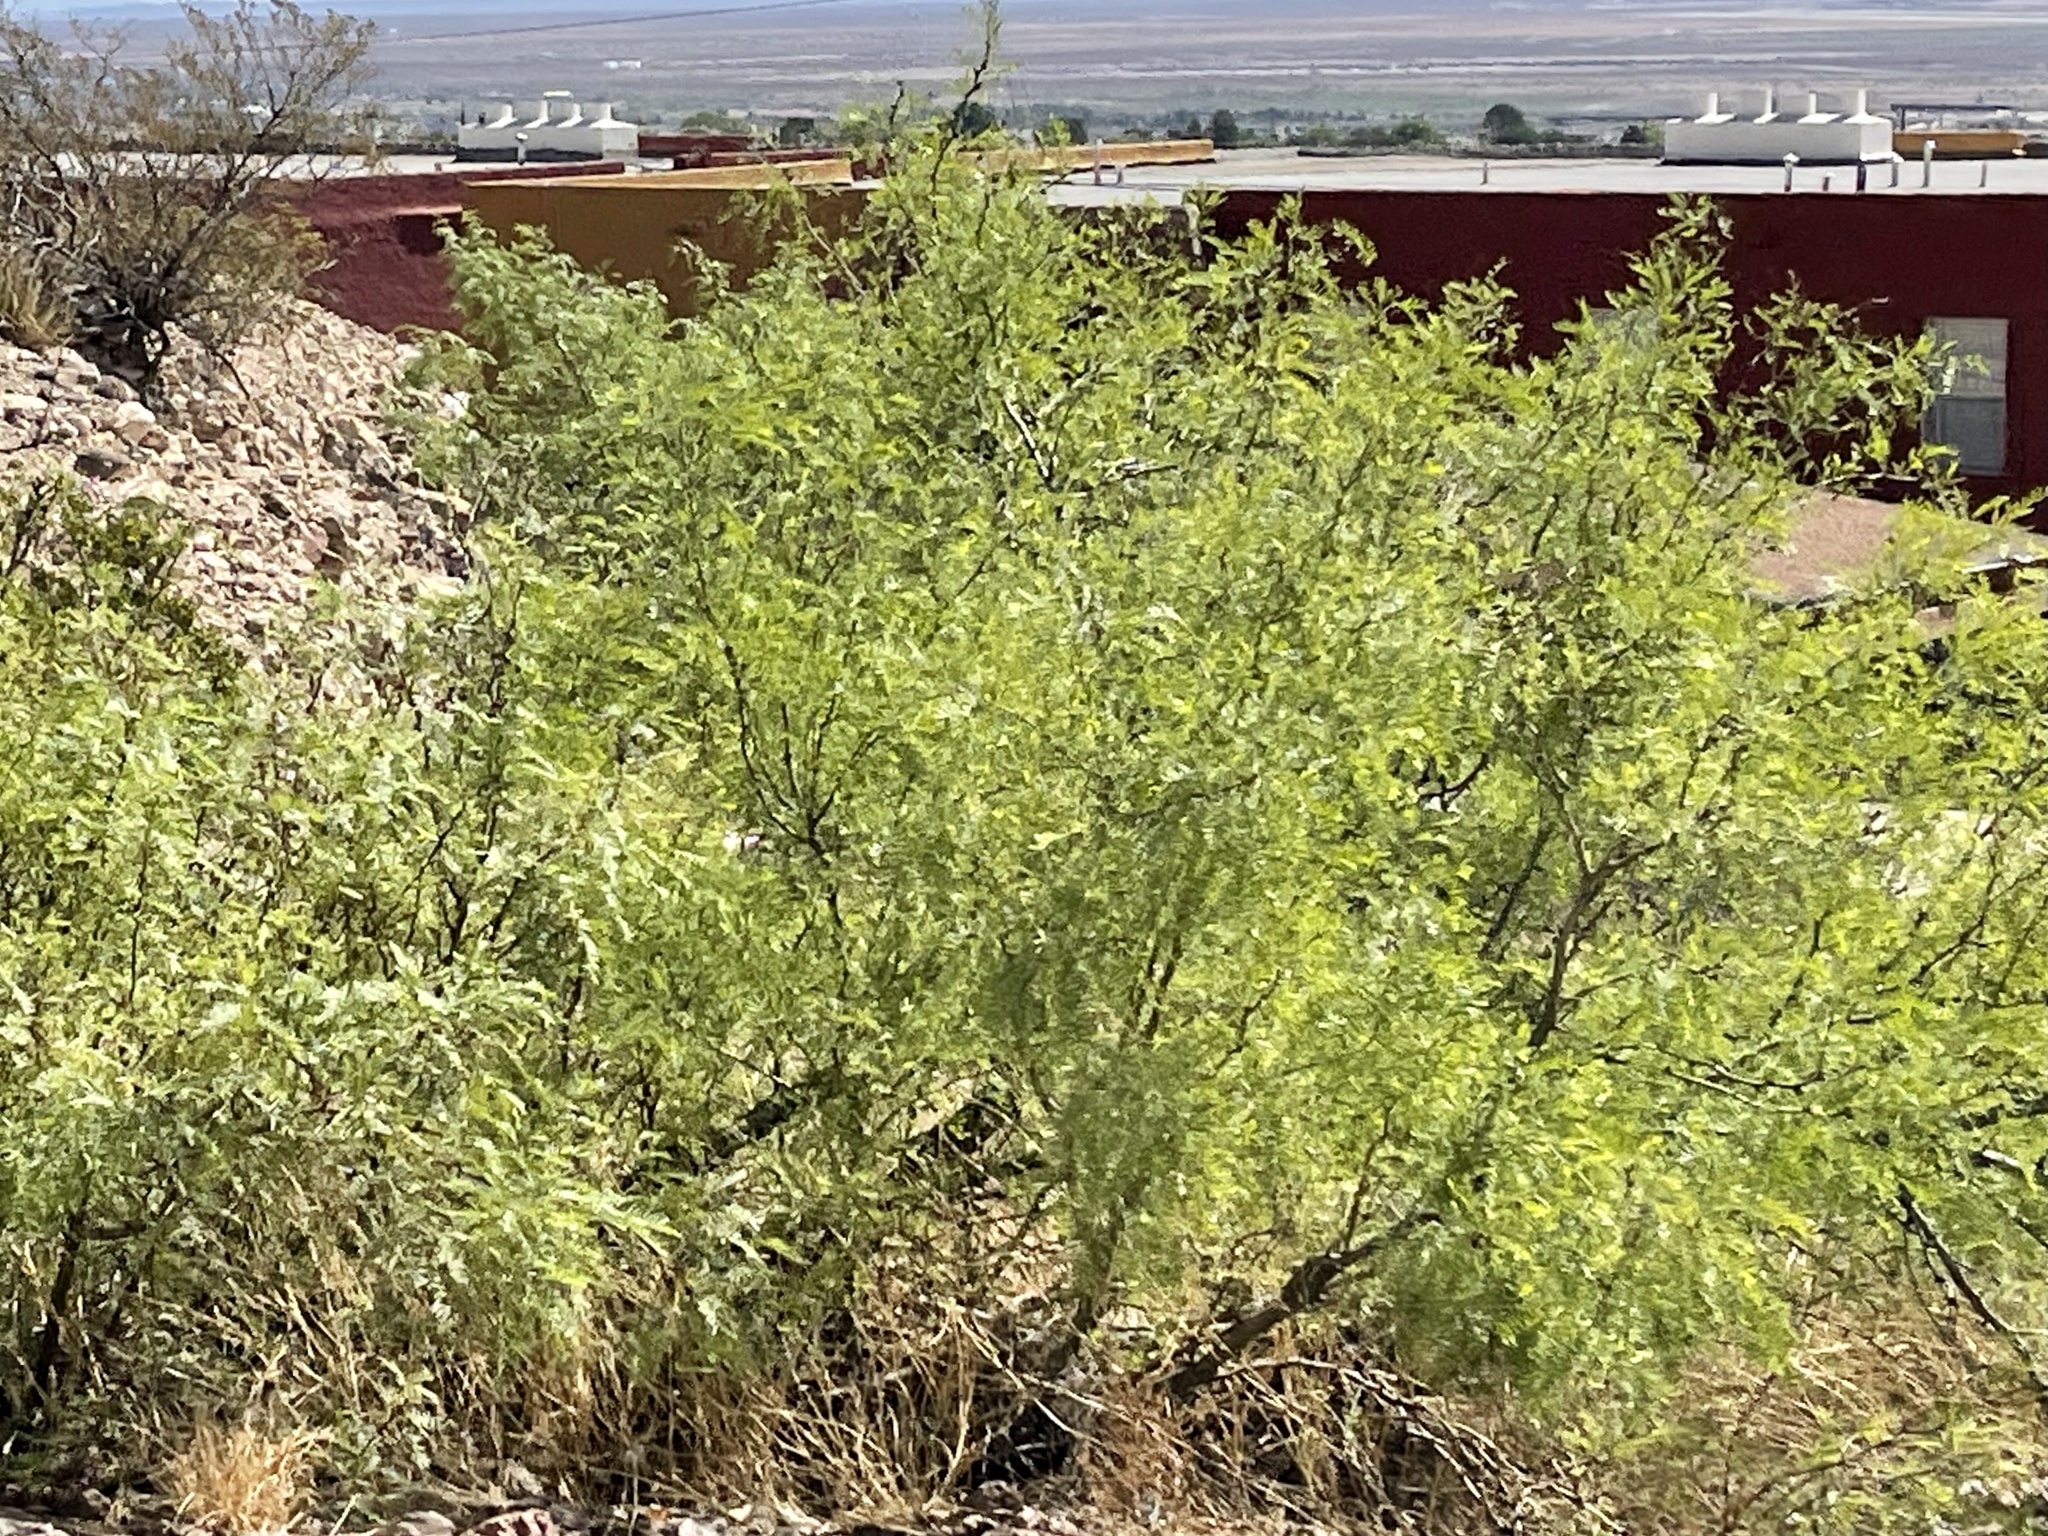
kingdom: Plantae
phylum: Tracheophyta
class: Magnoliopsida
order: Fabales
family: Fabaceae
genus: Prosopis
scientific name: Prosopis glandulosa
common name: Honey mesquite
